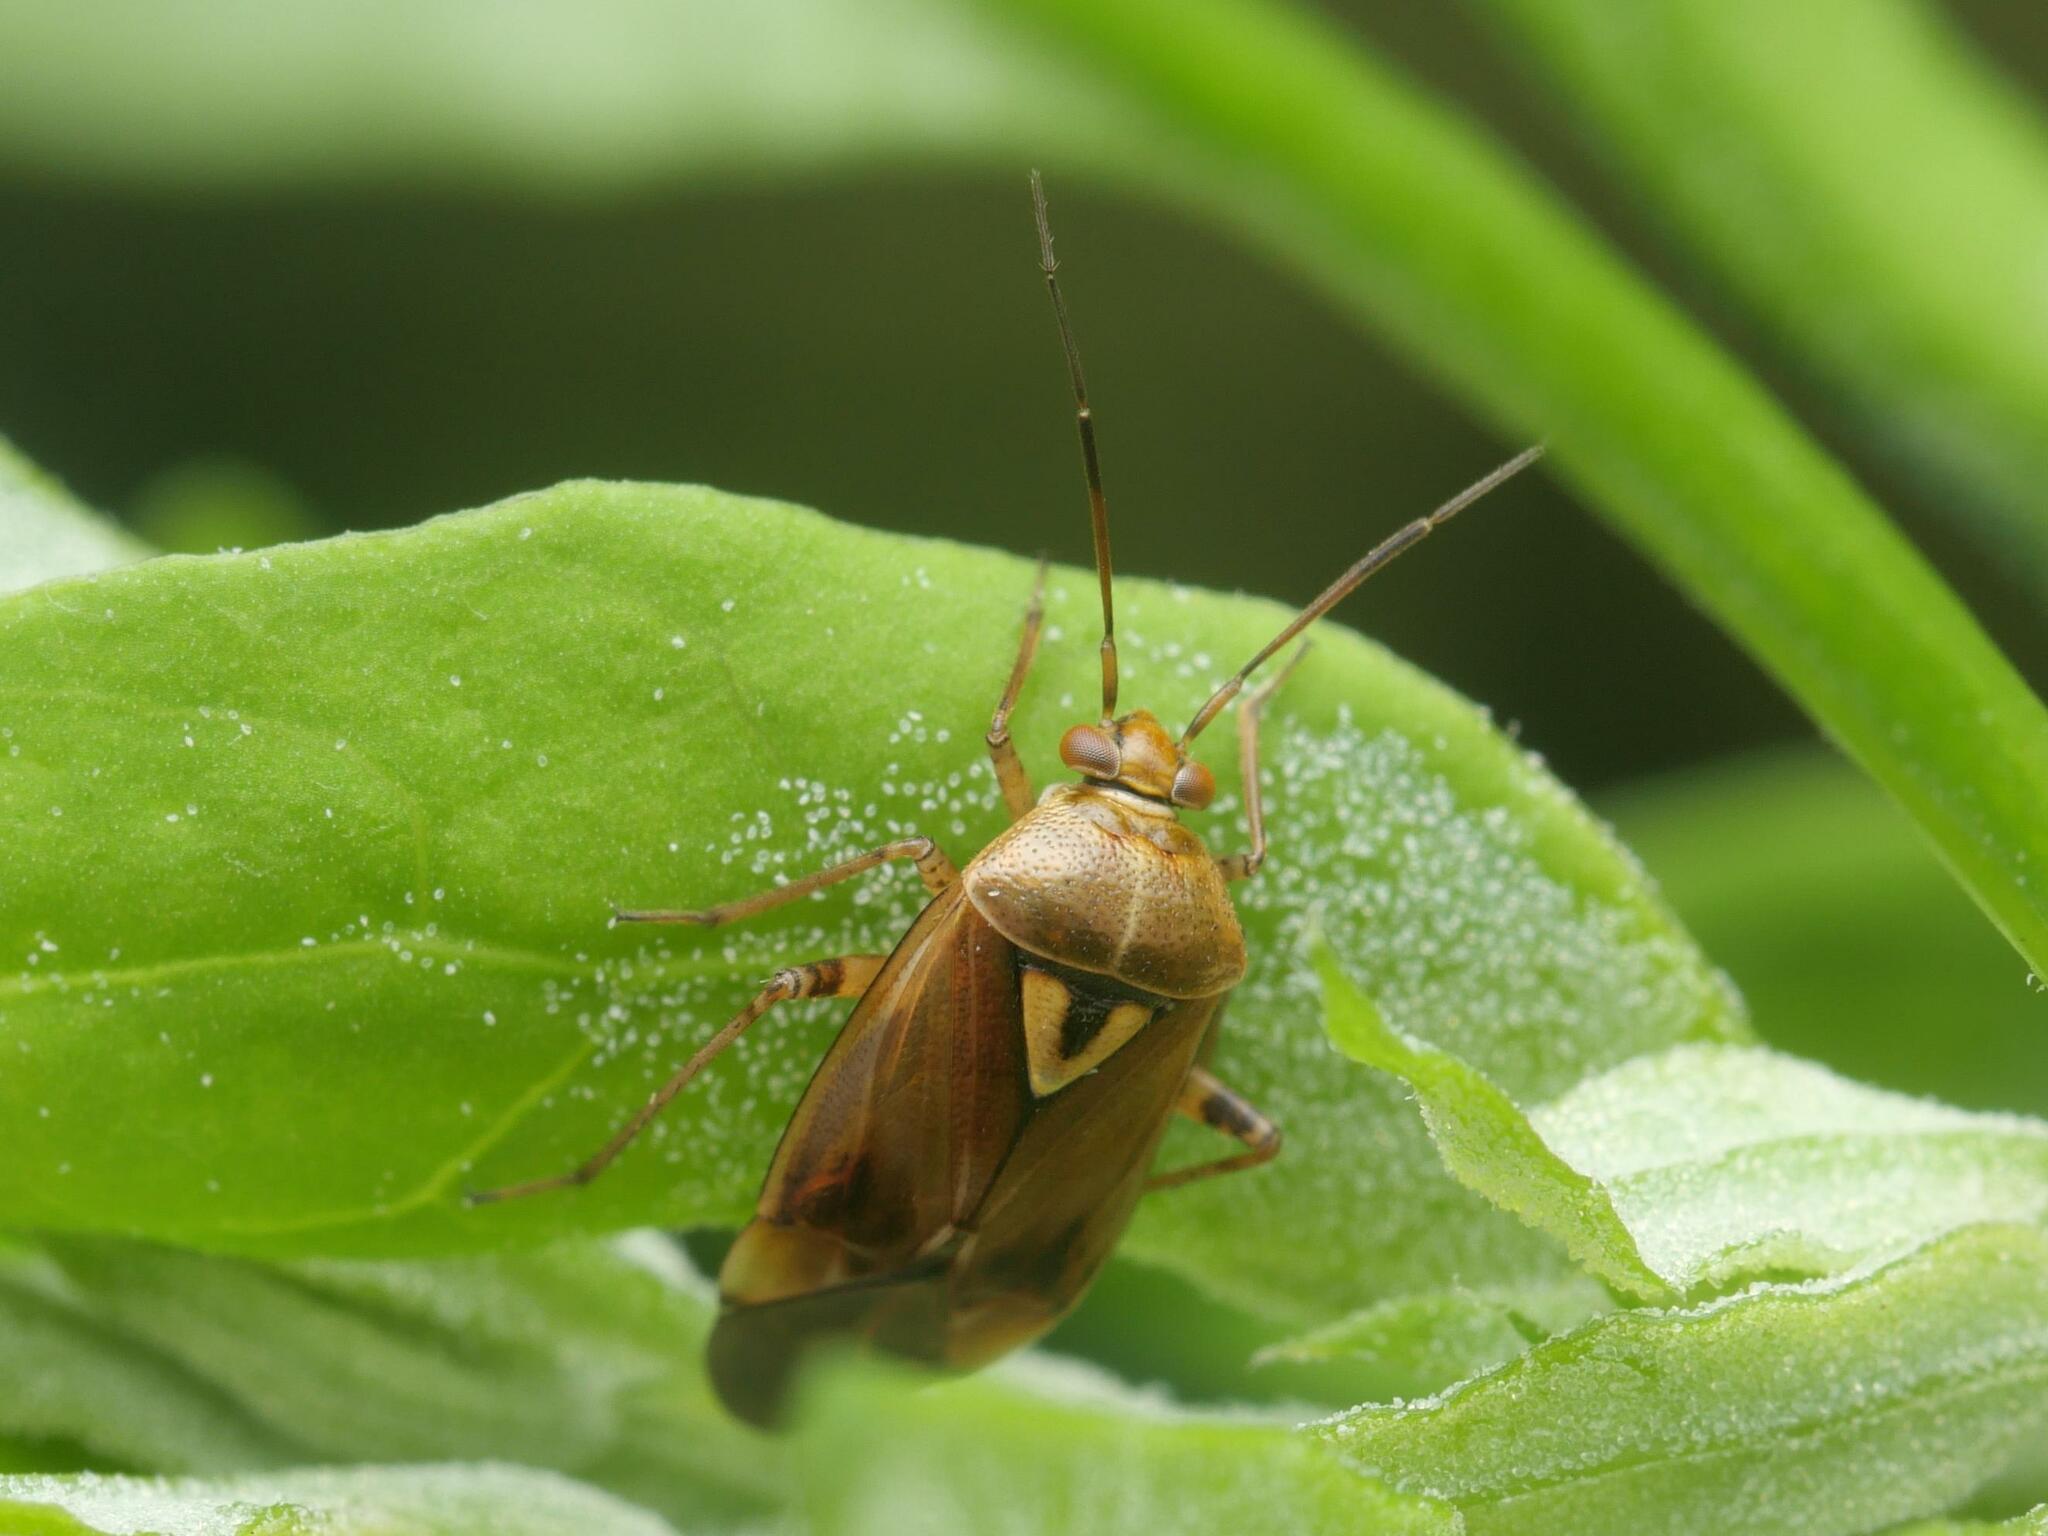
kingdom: Animalia
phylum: Arthropoda
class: Insecta
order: Hemiptera
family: Miridae
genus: Lygus
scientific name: Lygus pratensis
